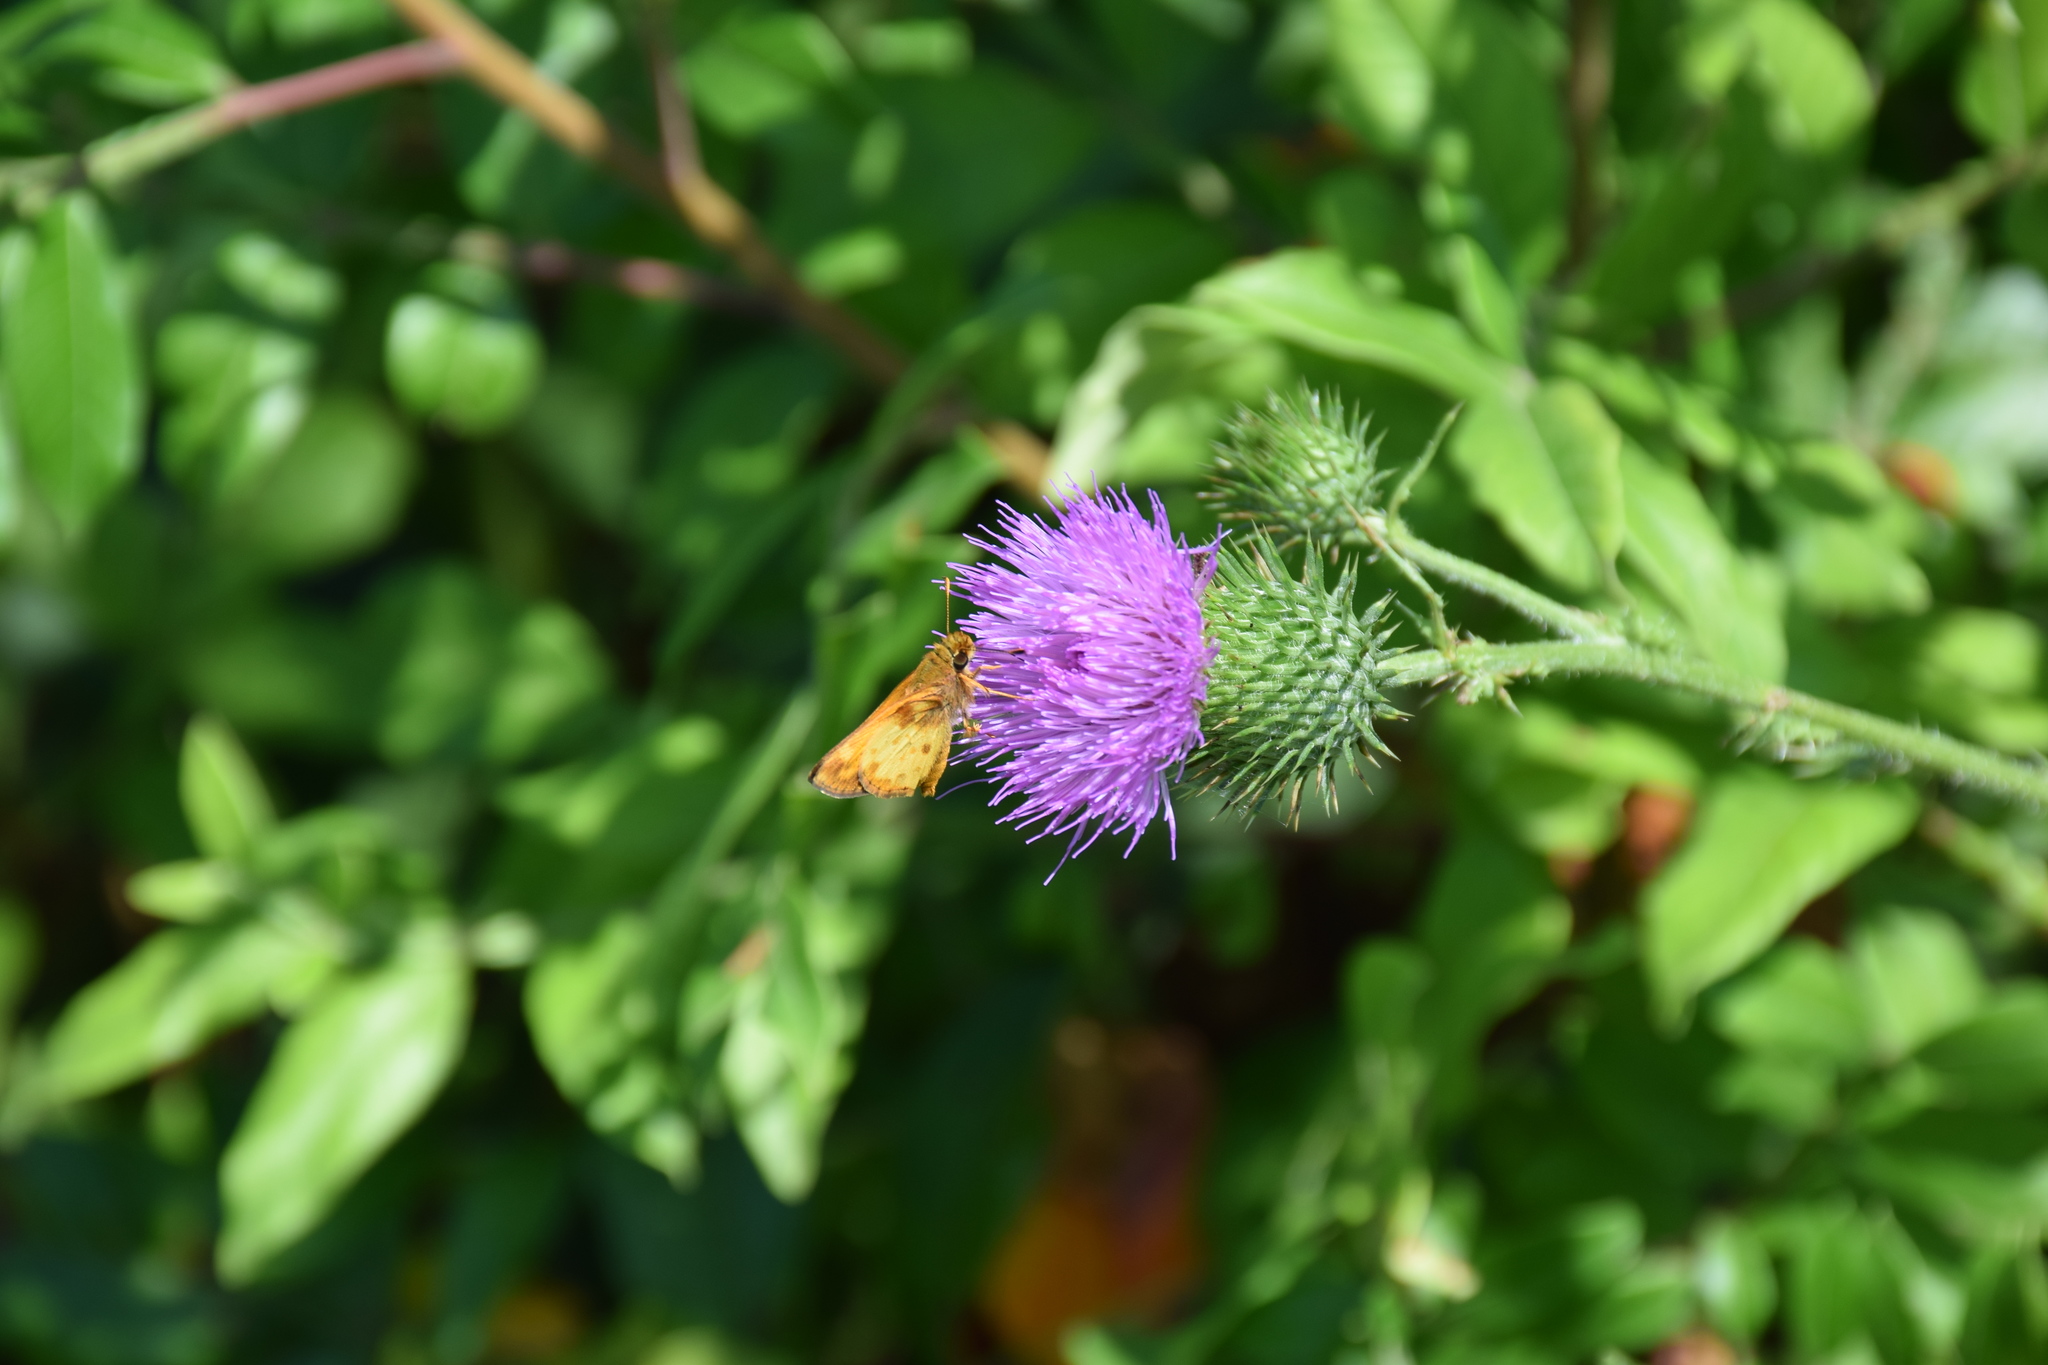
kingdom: Animalia
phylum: Arthropoda
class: Insecta
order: Lepidoptera
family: Hesperiidae
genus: Lon
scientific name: Lon zabulon
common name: Zabulon skipper
